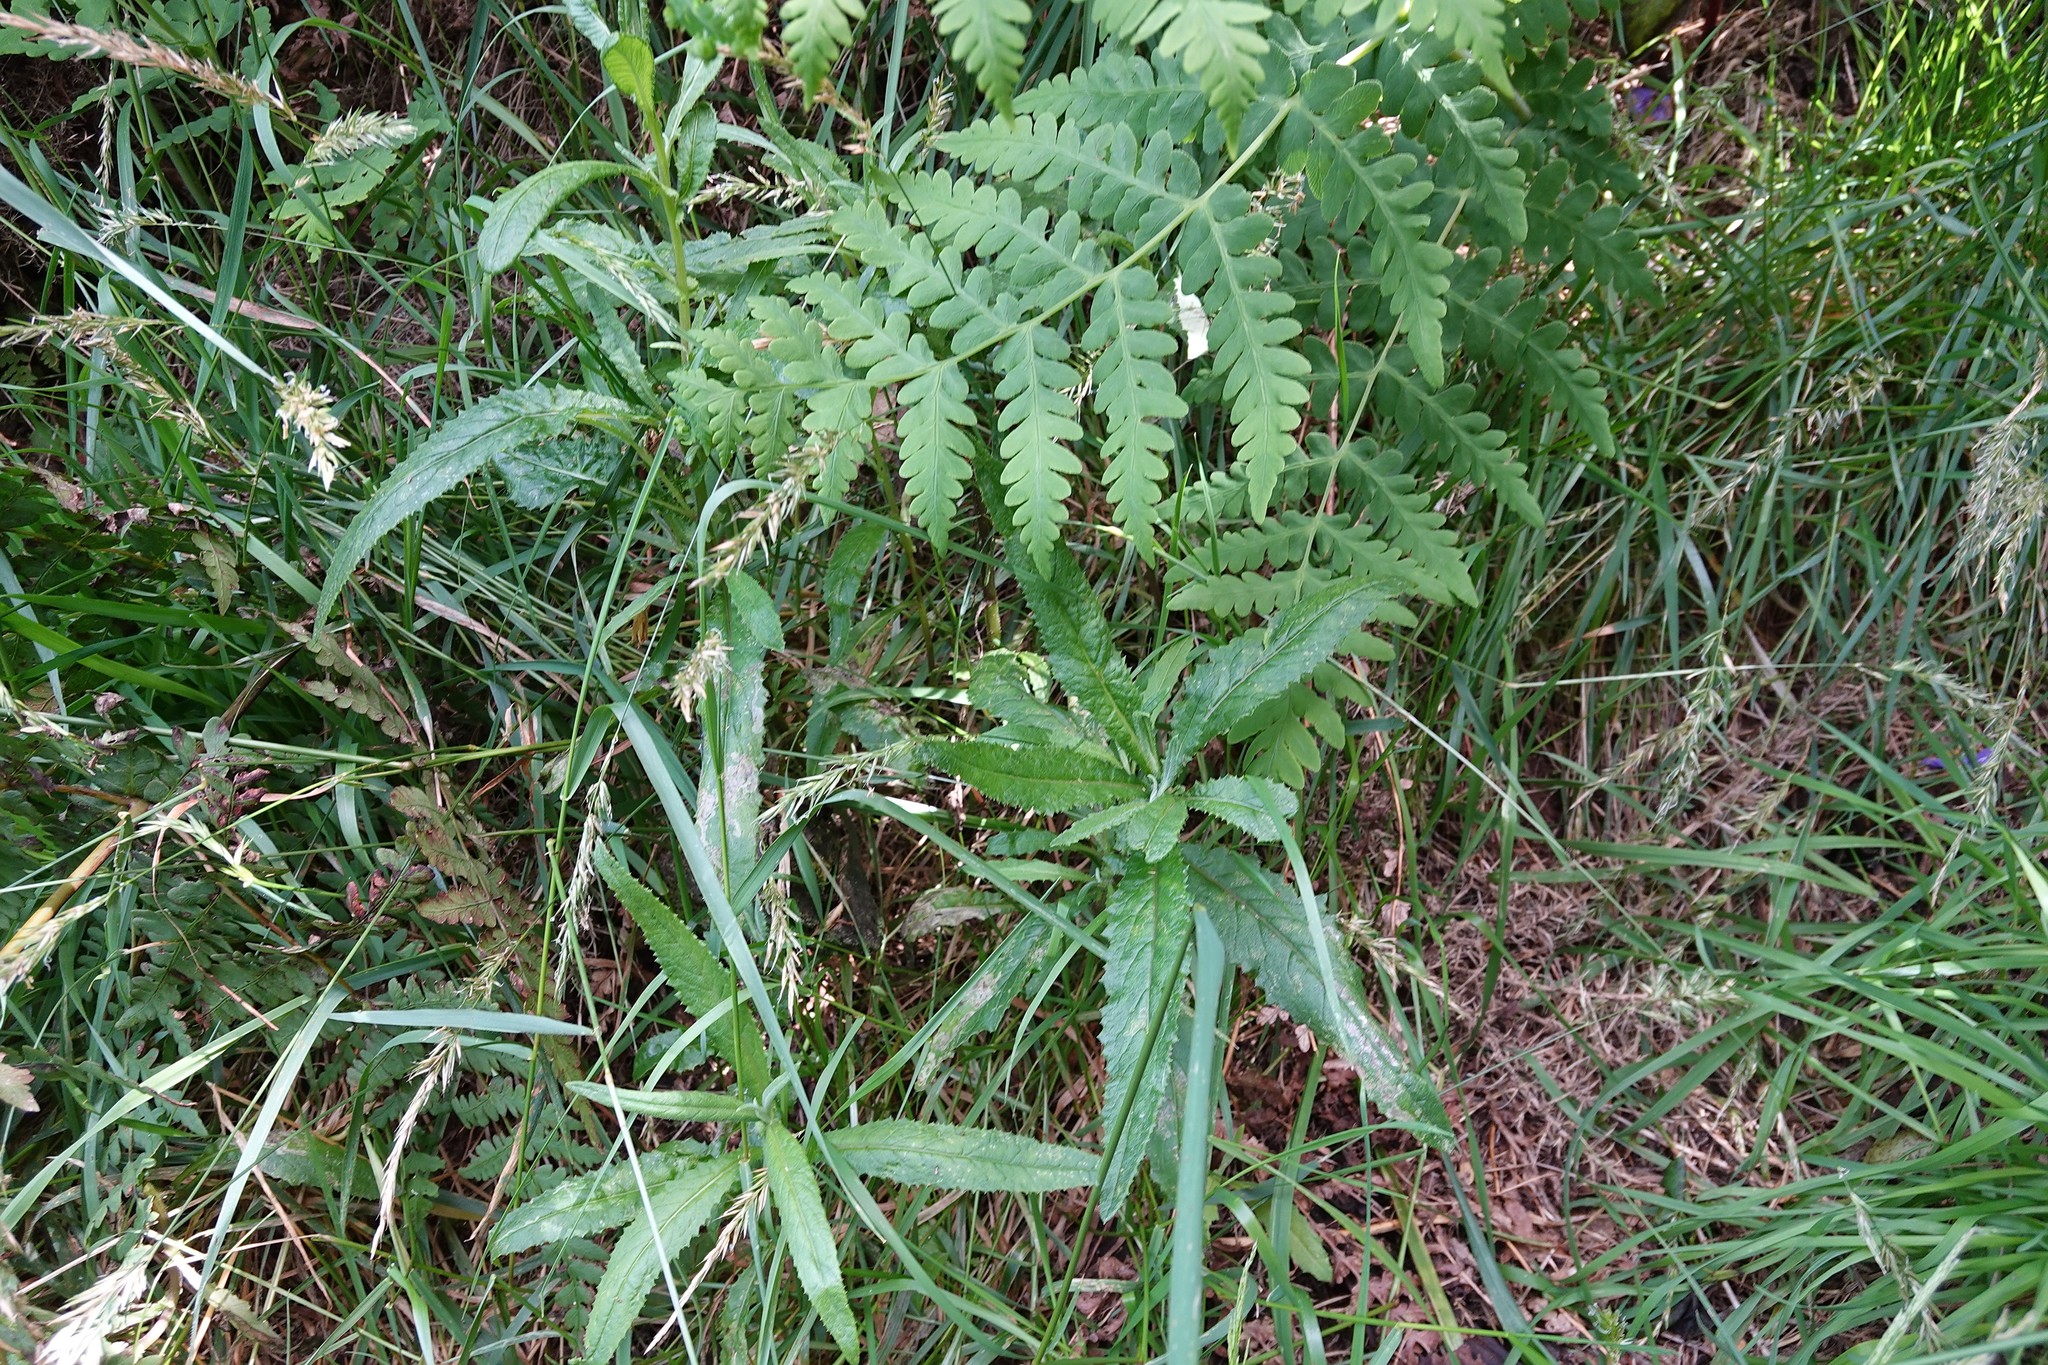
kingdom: Plantae
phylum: Tracheophyta
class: Magnoliopsida
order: Asterales
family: Asteraceae
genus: Senecio
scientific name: Senecio minimus
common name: Toothed fireweed
